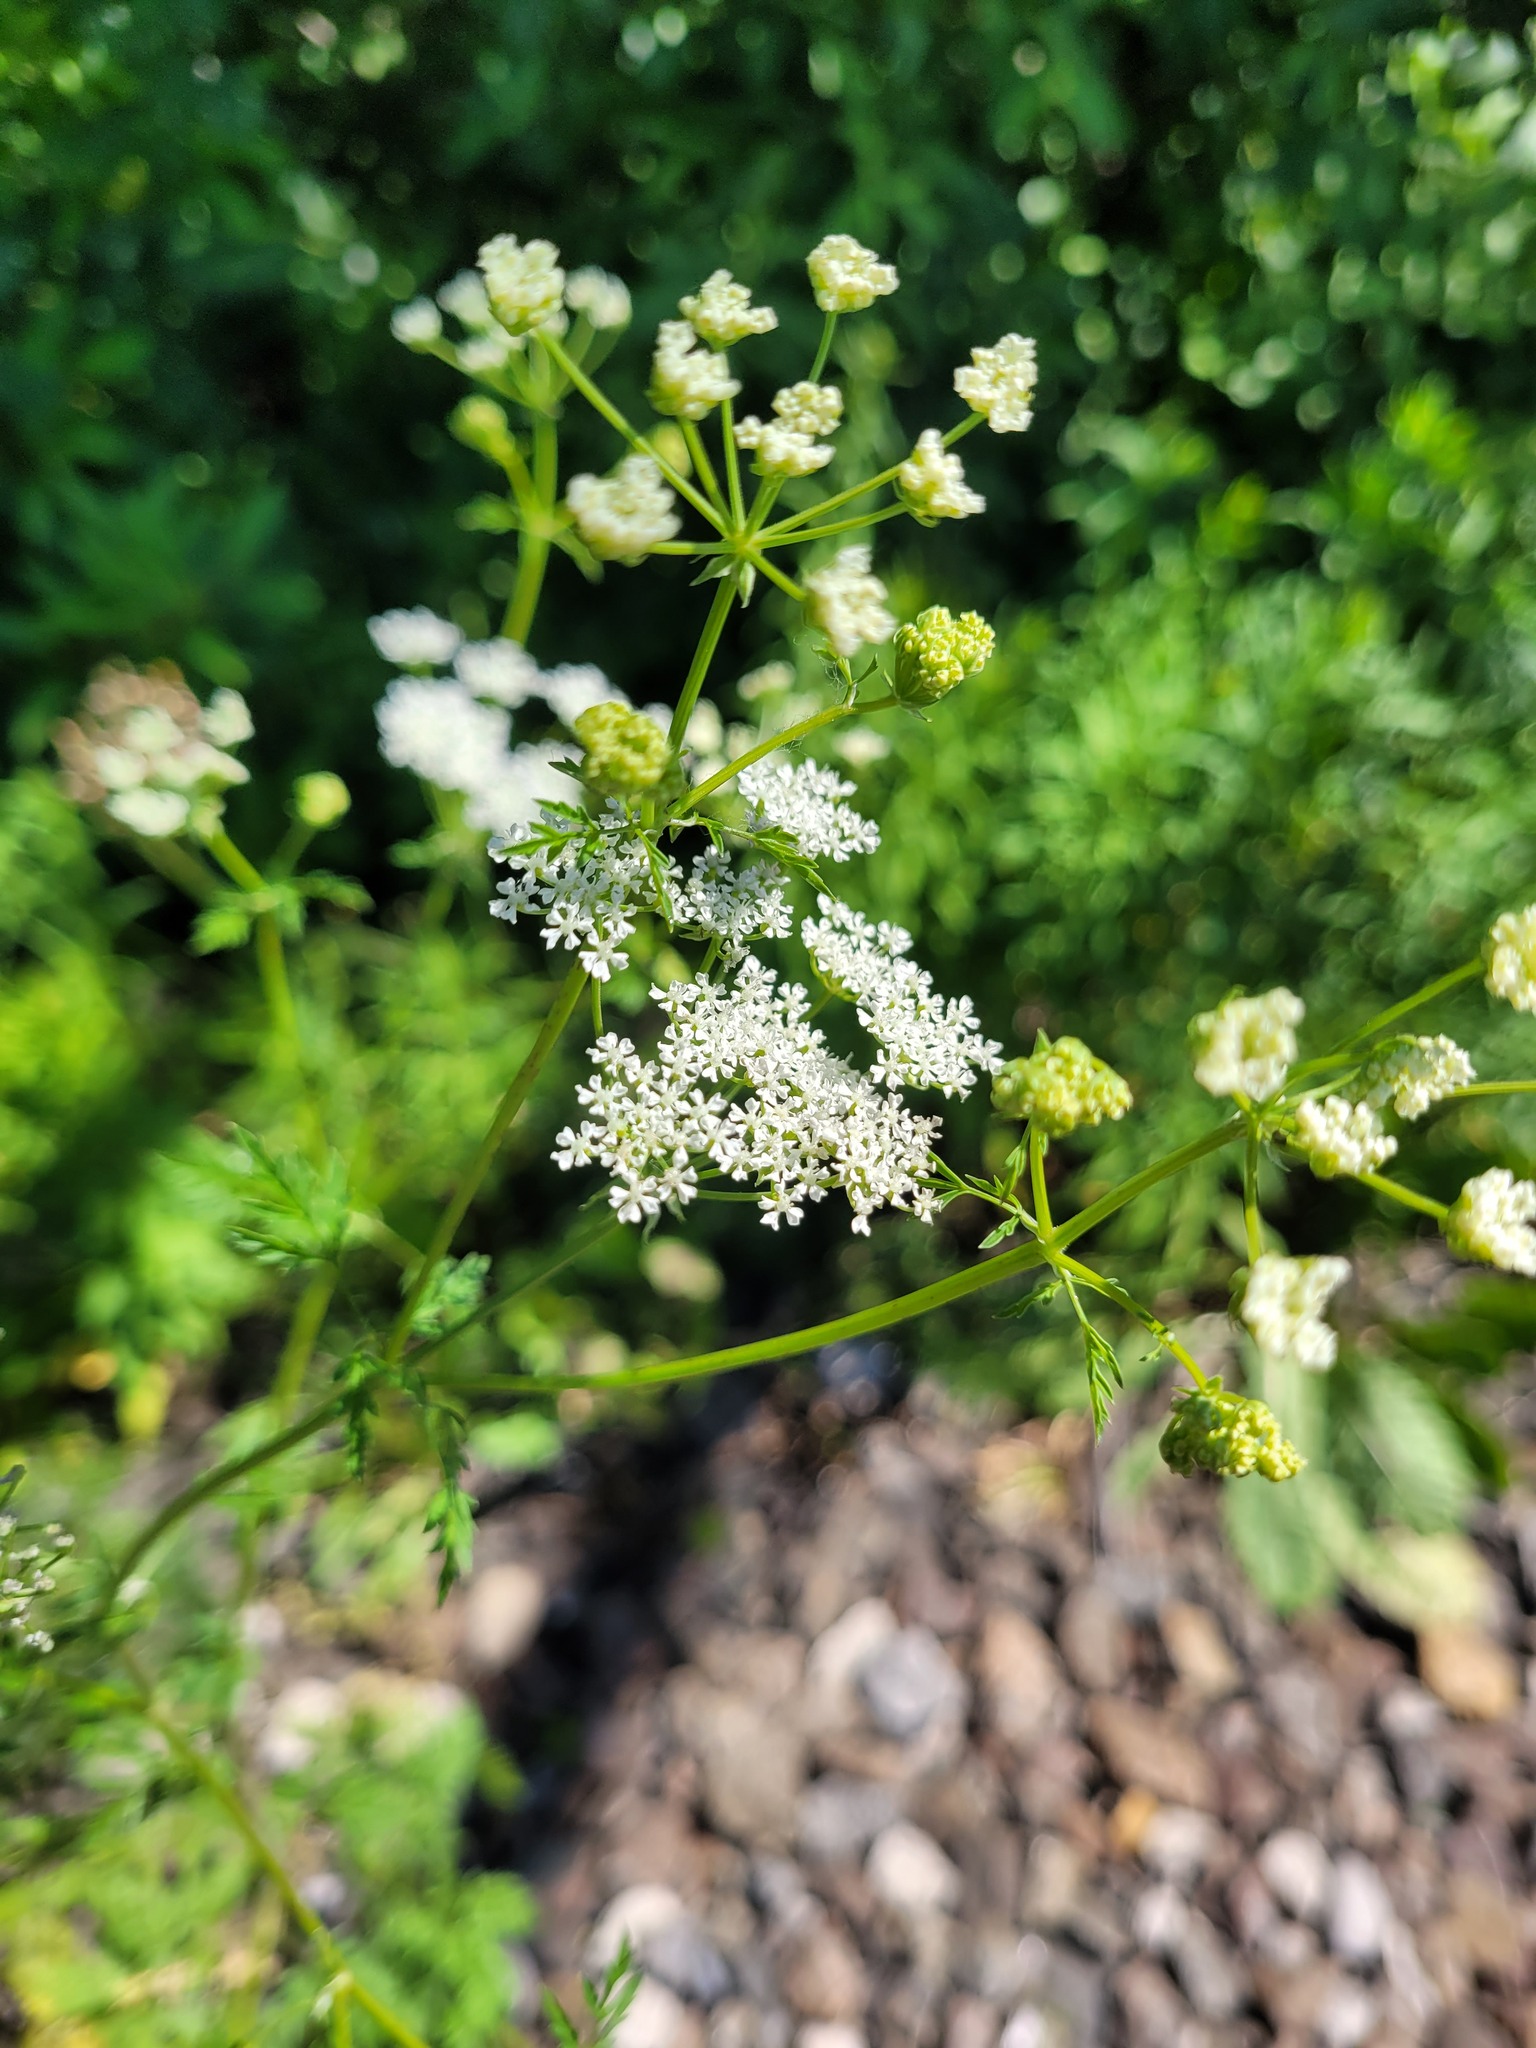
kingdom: Plantae
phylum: Tracheophyta
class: Magnoliopsida
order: Apiales
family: Apiaceae
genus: Conium
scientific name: Conium maculatum
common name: Hemlock
